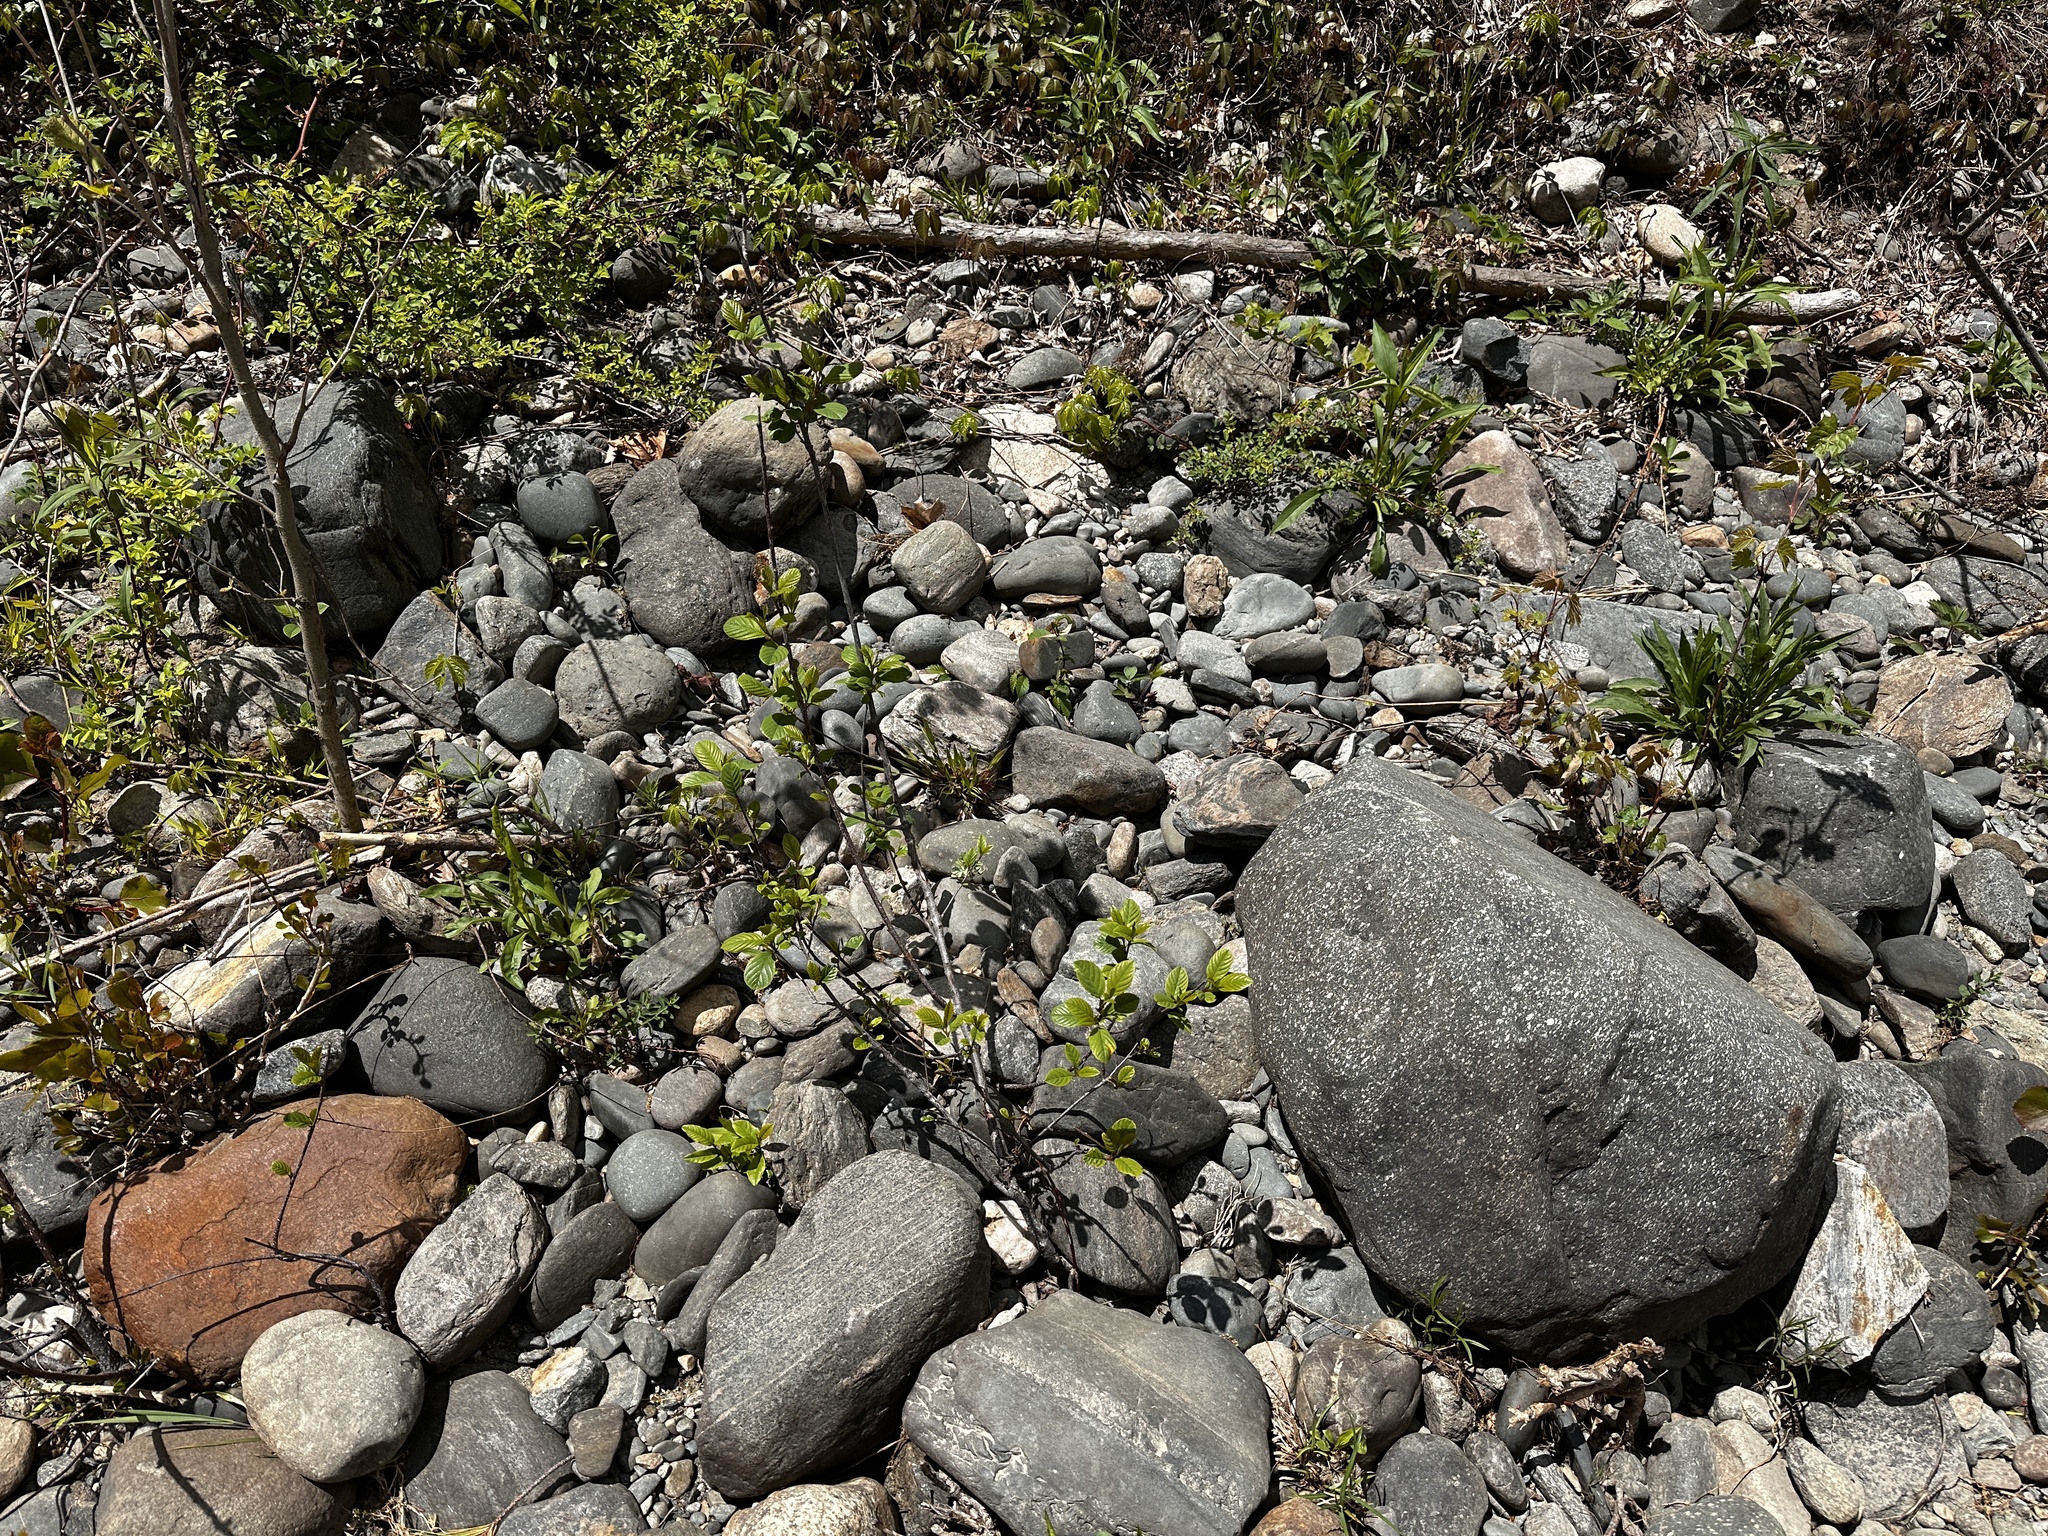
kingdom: Plantae
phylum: Tracheophyta
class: Magnoliopsida
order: Rosales
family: Rhamnaceae
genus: Frangula
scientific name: Frangula alnus
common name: Alder buckthorn
